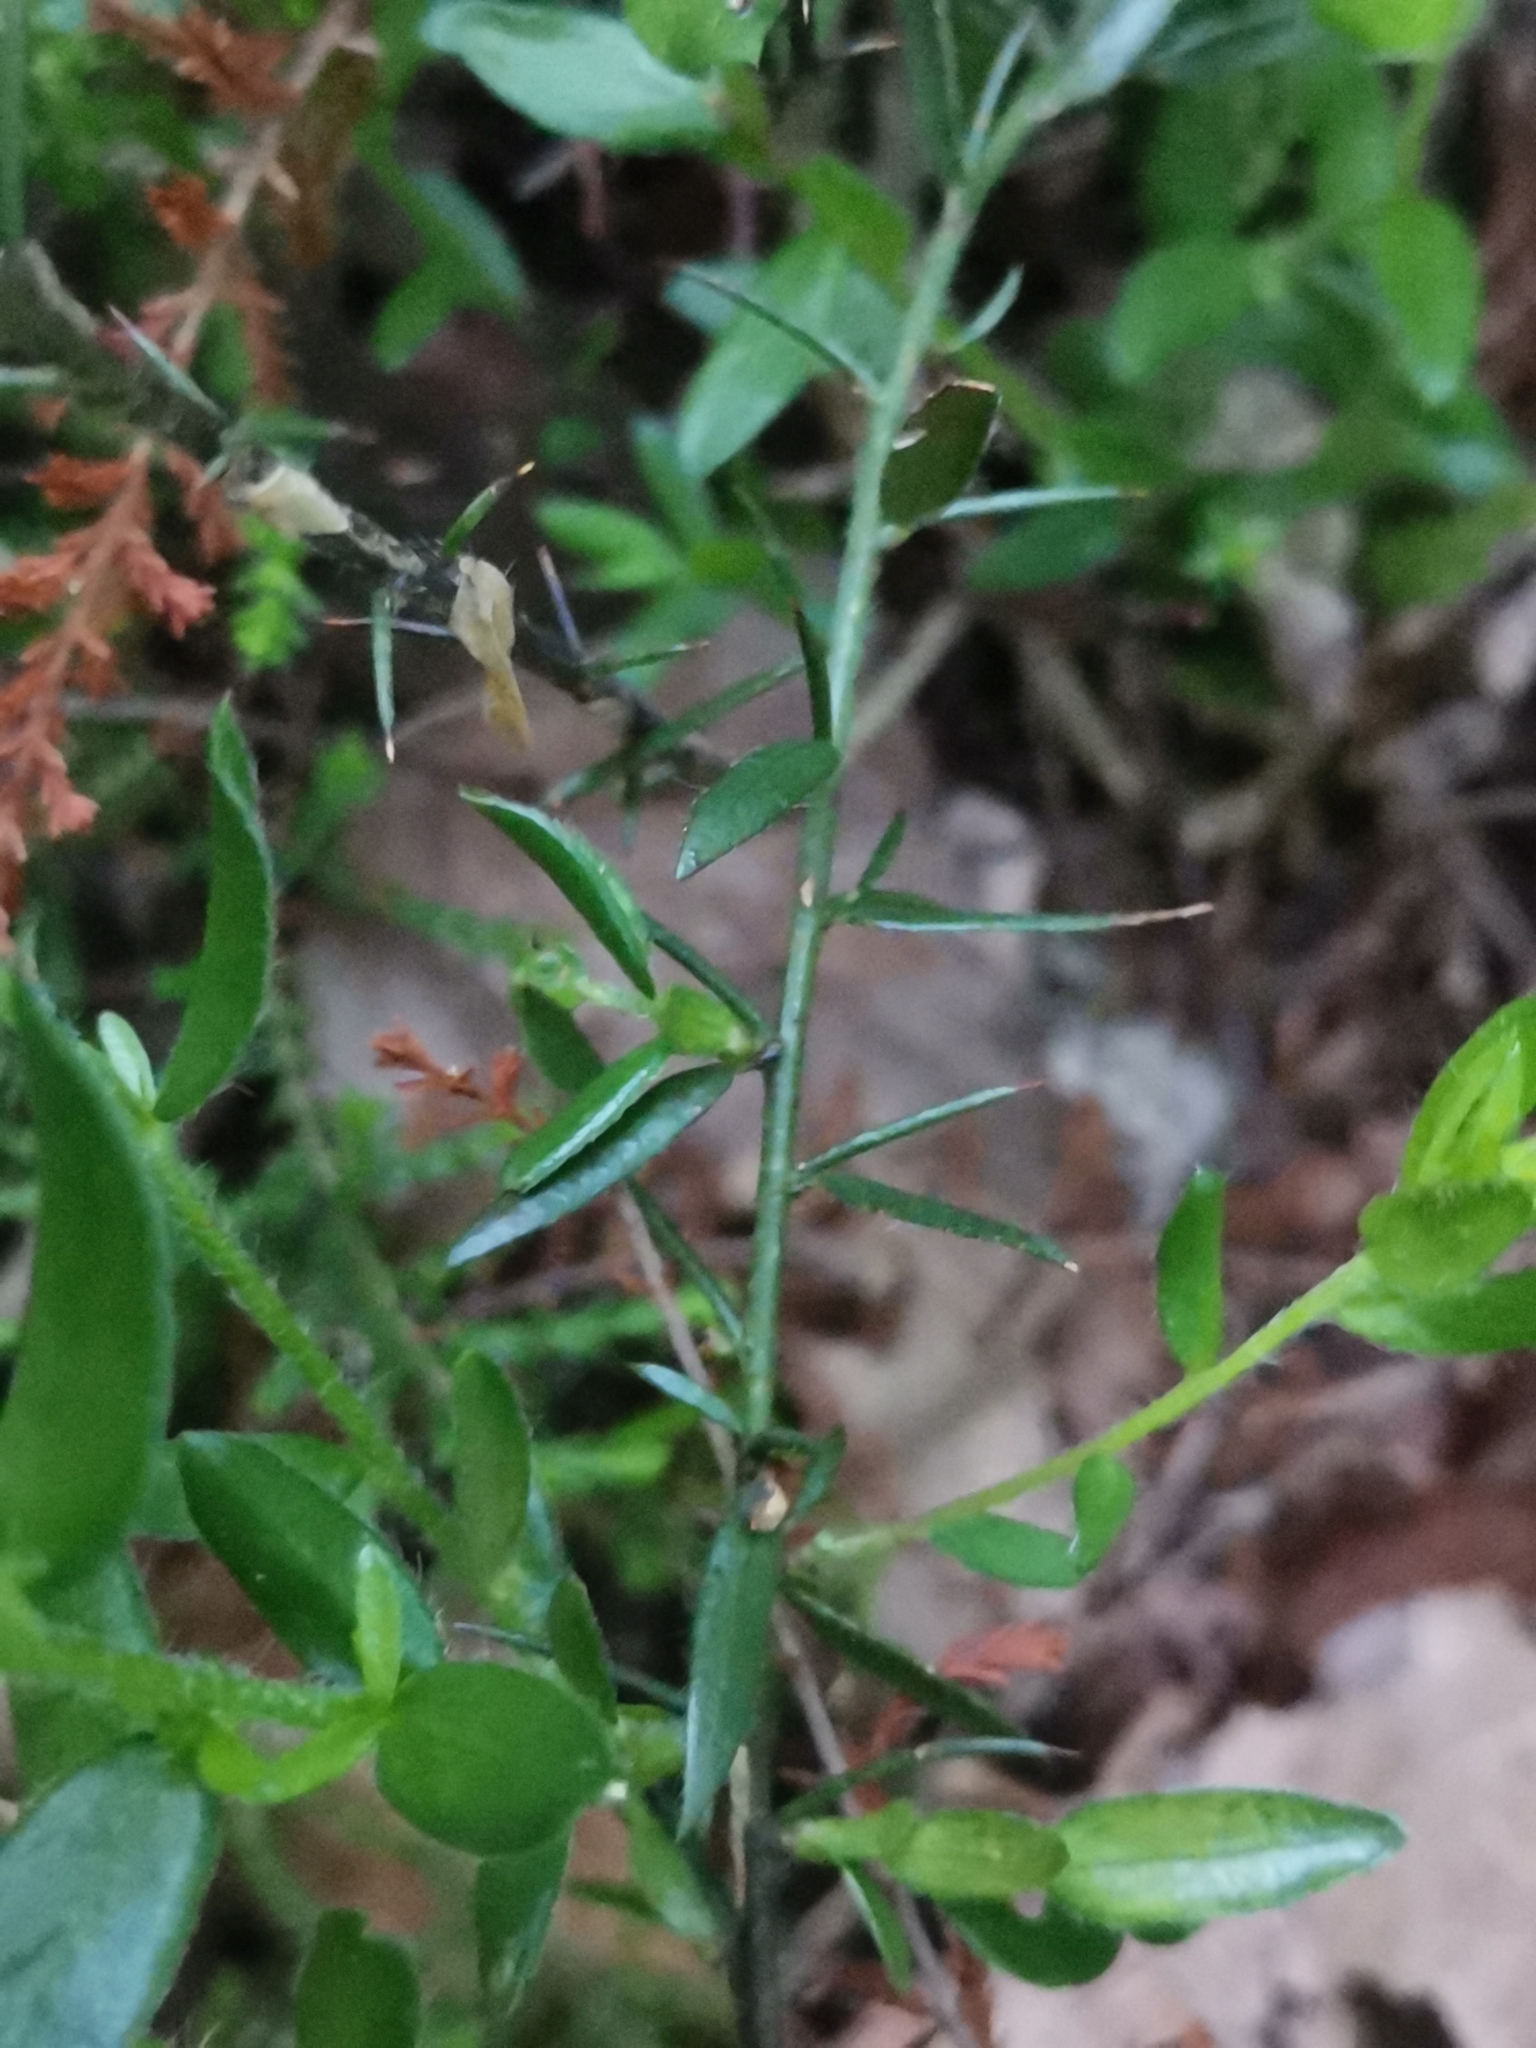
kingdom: Plantae
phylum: Tracheophyta
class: Magnoliopsida
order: Fabales
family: Fabaceae
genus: Genista
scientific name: Genista germanica
